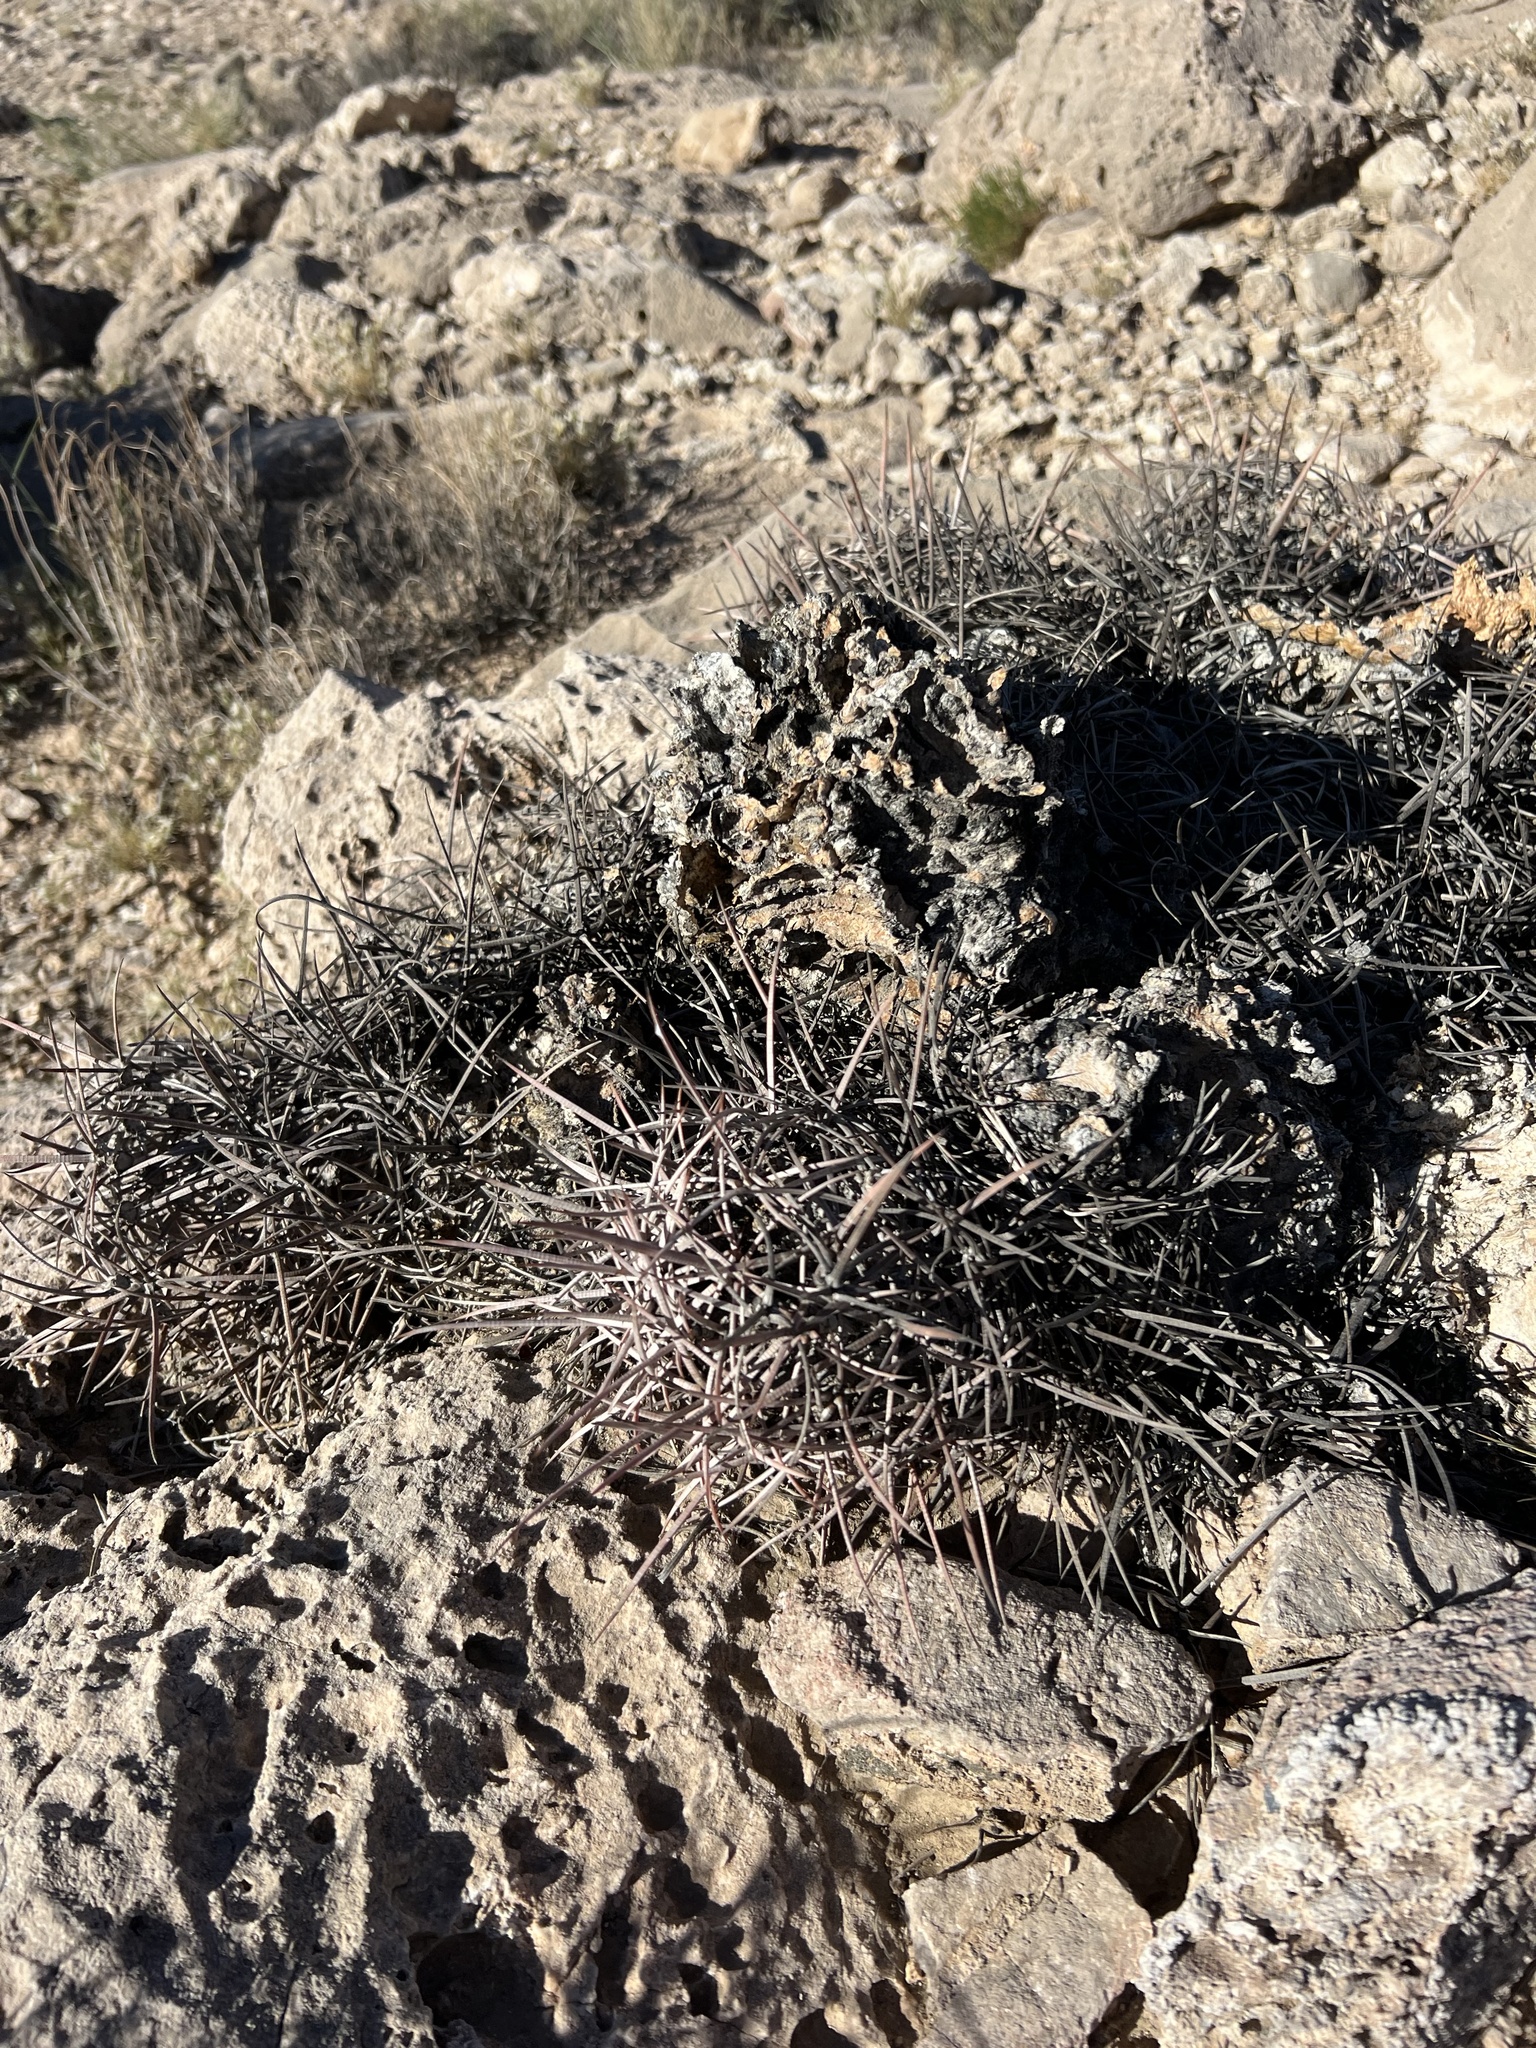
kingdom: Plantae
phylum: Tracheophyta
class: Magnoliopsida
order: Caryophyllales
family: Cactaceae
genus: Echinocactus
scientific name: Echinocactus polycephalus
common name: Cottontop cactus
